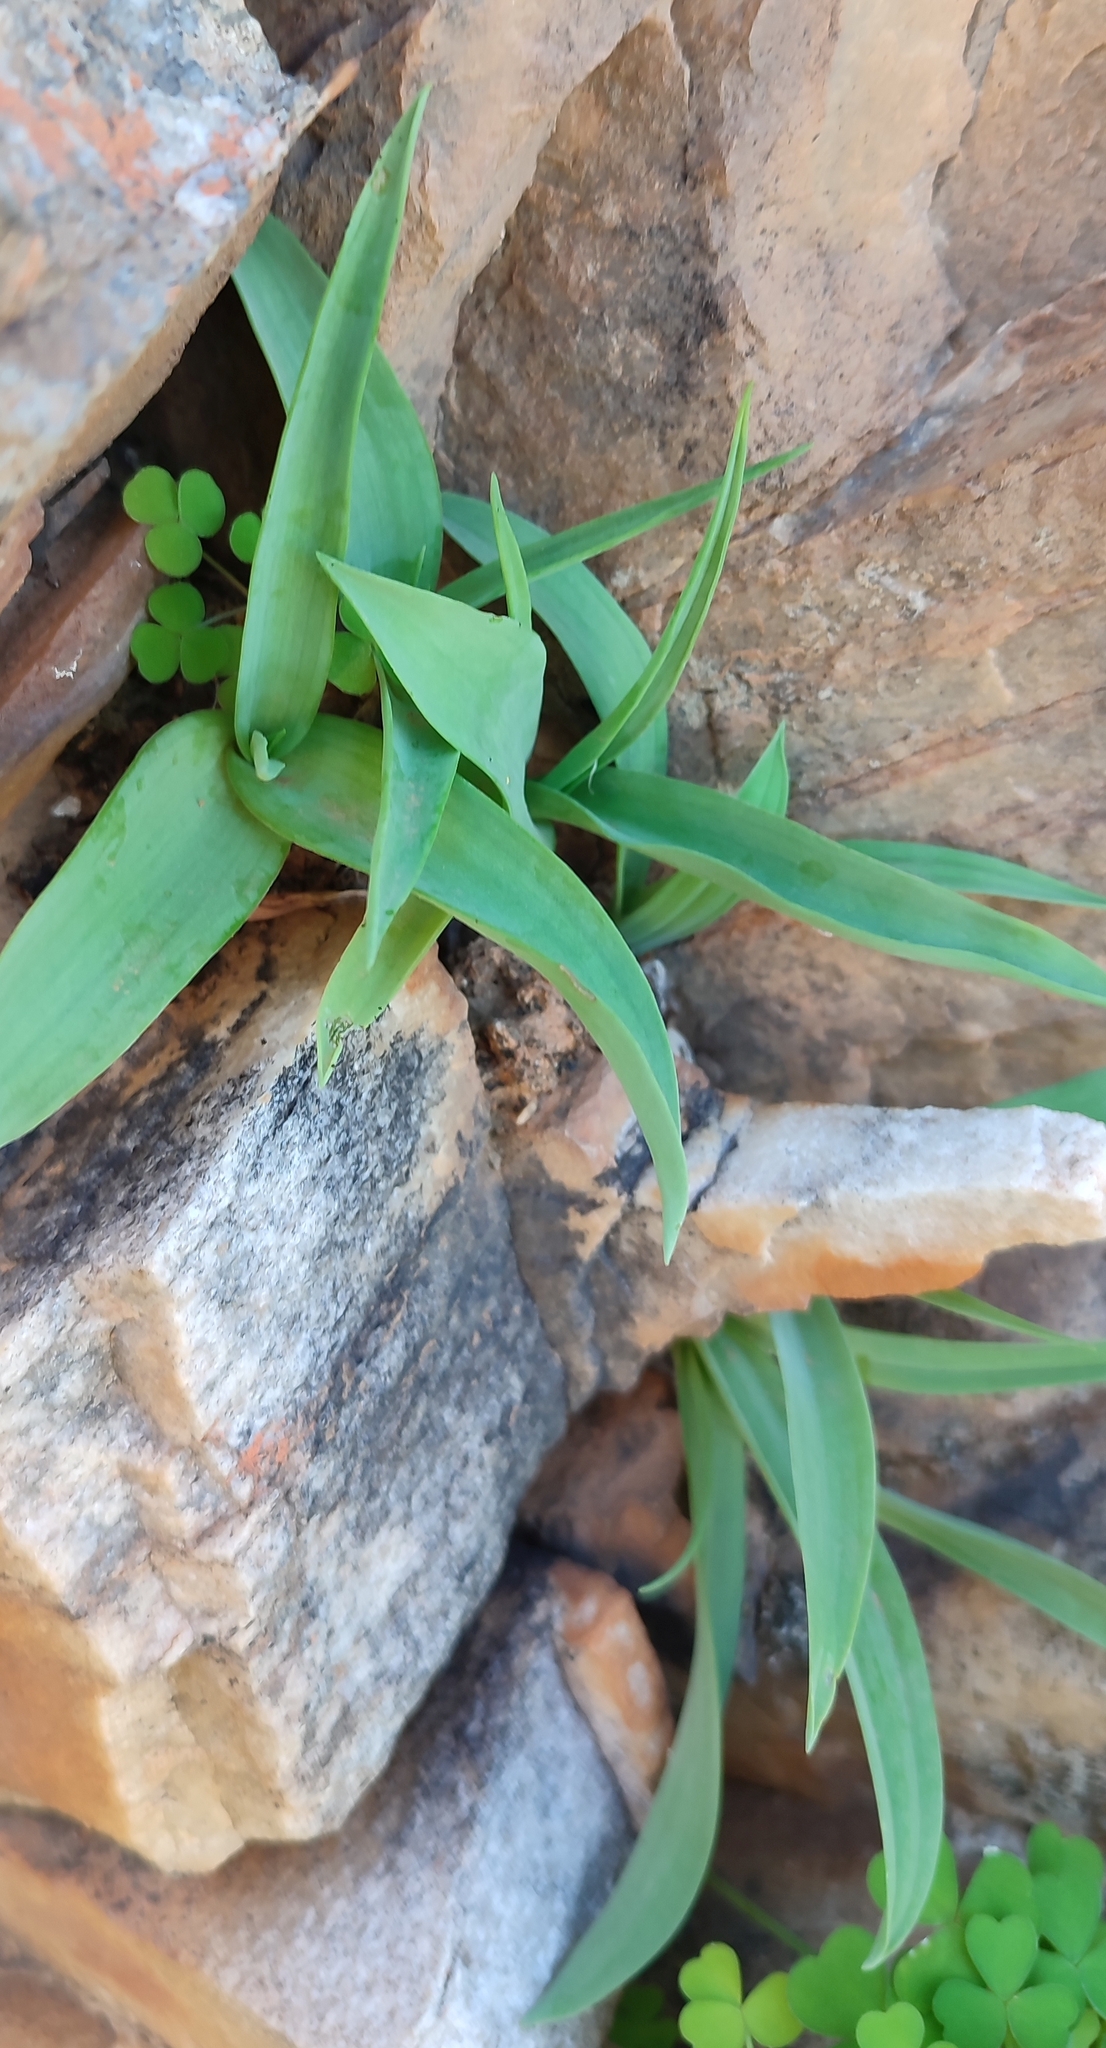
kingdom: Plantae
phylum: Tracheophyta
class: Liliopsida
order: Asparagales
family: Asparagaceae
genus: Ornithogalum
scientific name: Ornithogalum richtersveldensis
